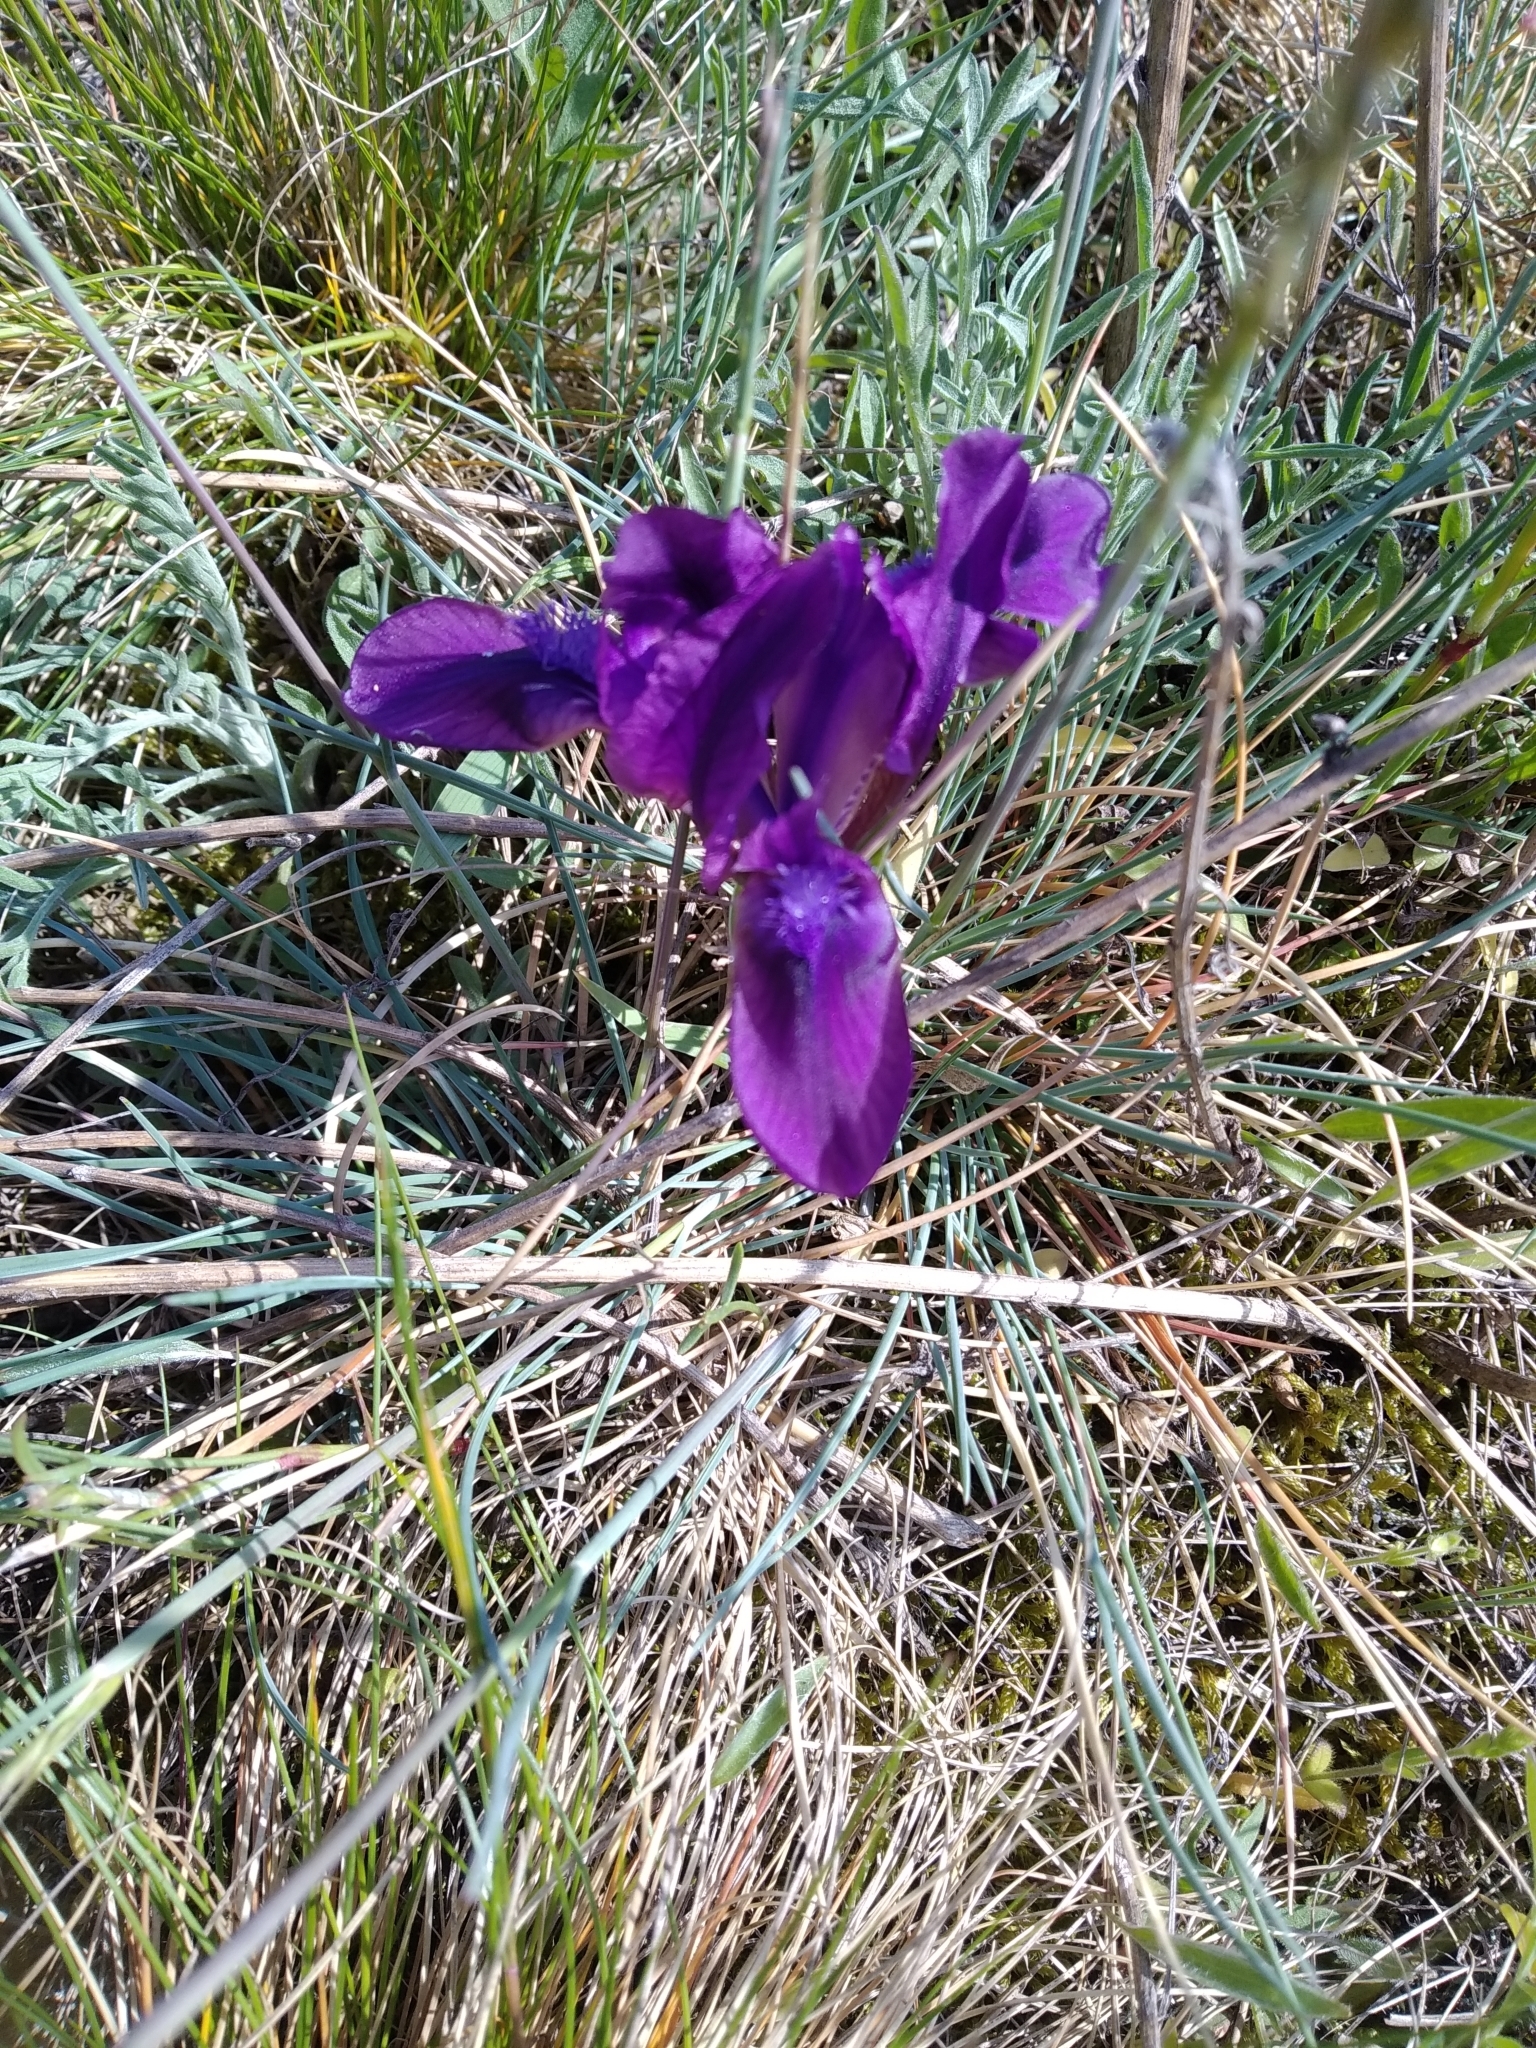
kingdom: Plantae
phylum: Tracheophyta
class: Liliopsida
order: Asparagales
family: Iridaceae
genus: Iris
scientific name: Iris pumila
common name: Dwarf iris
